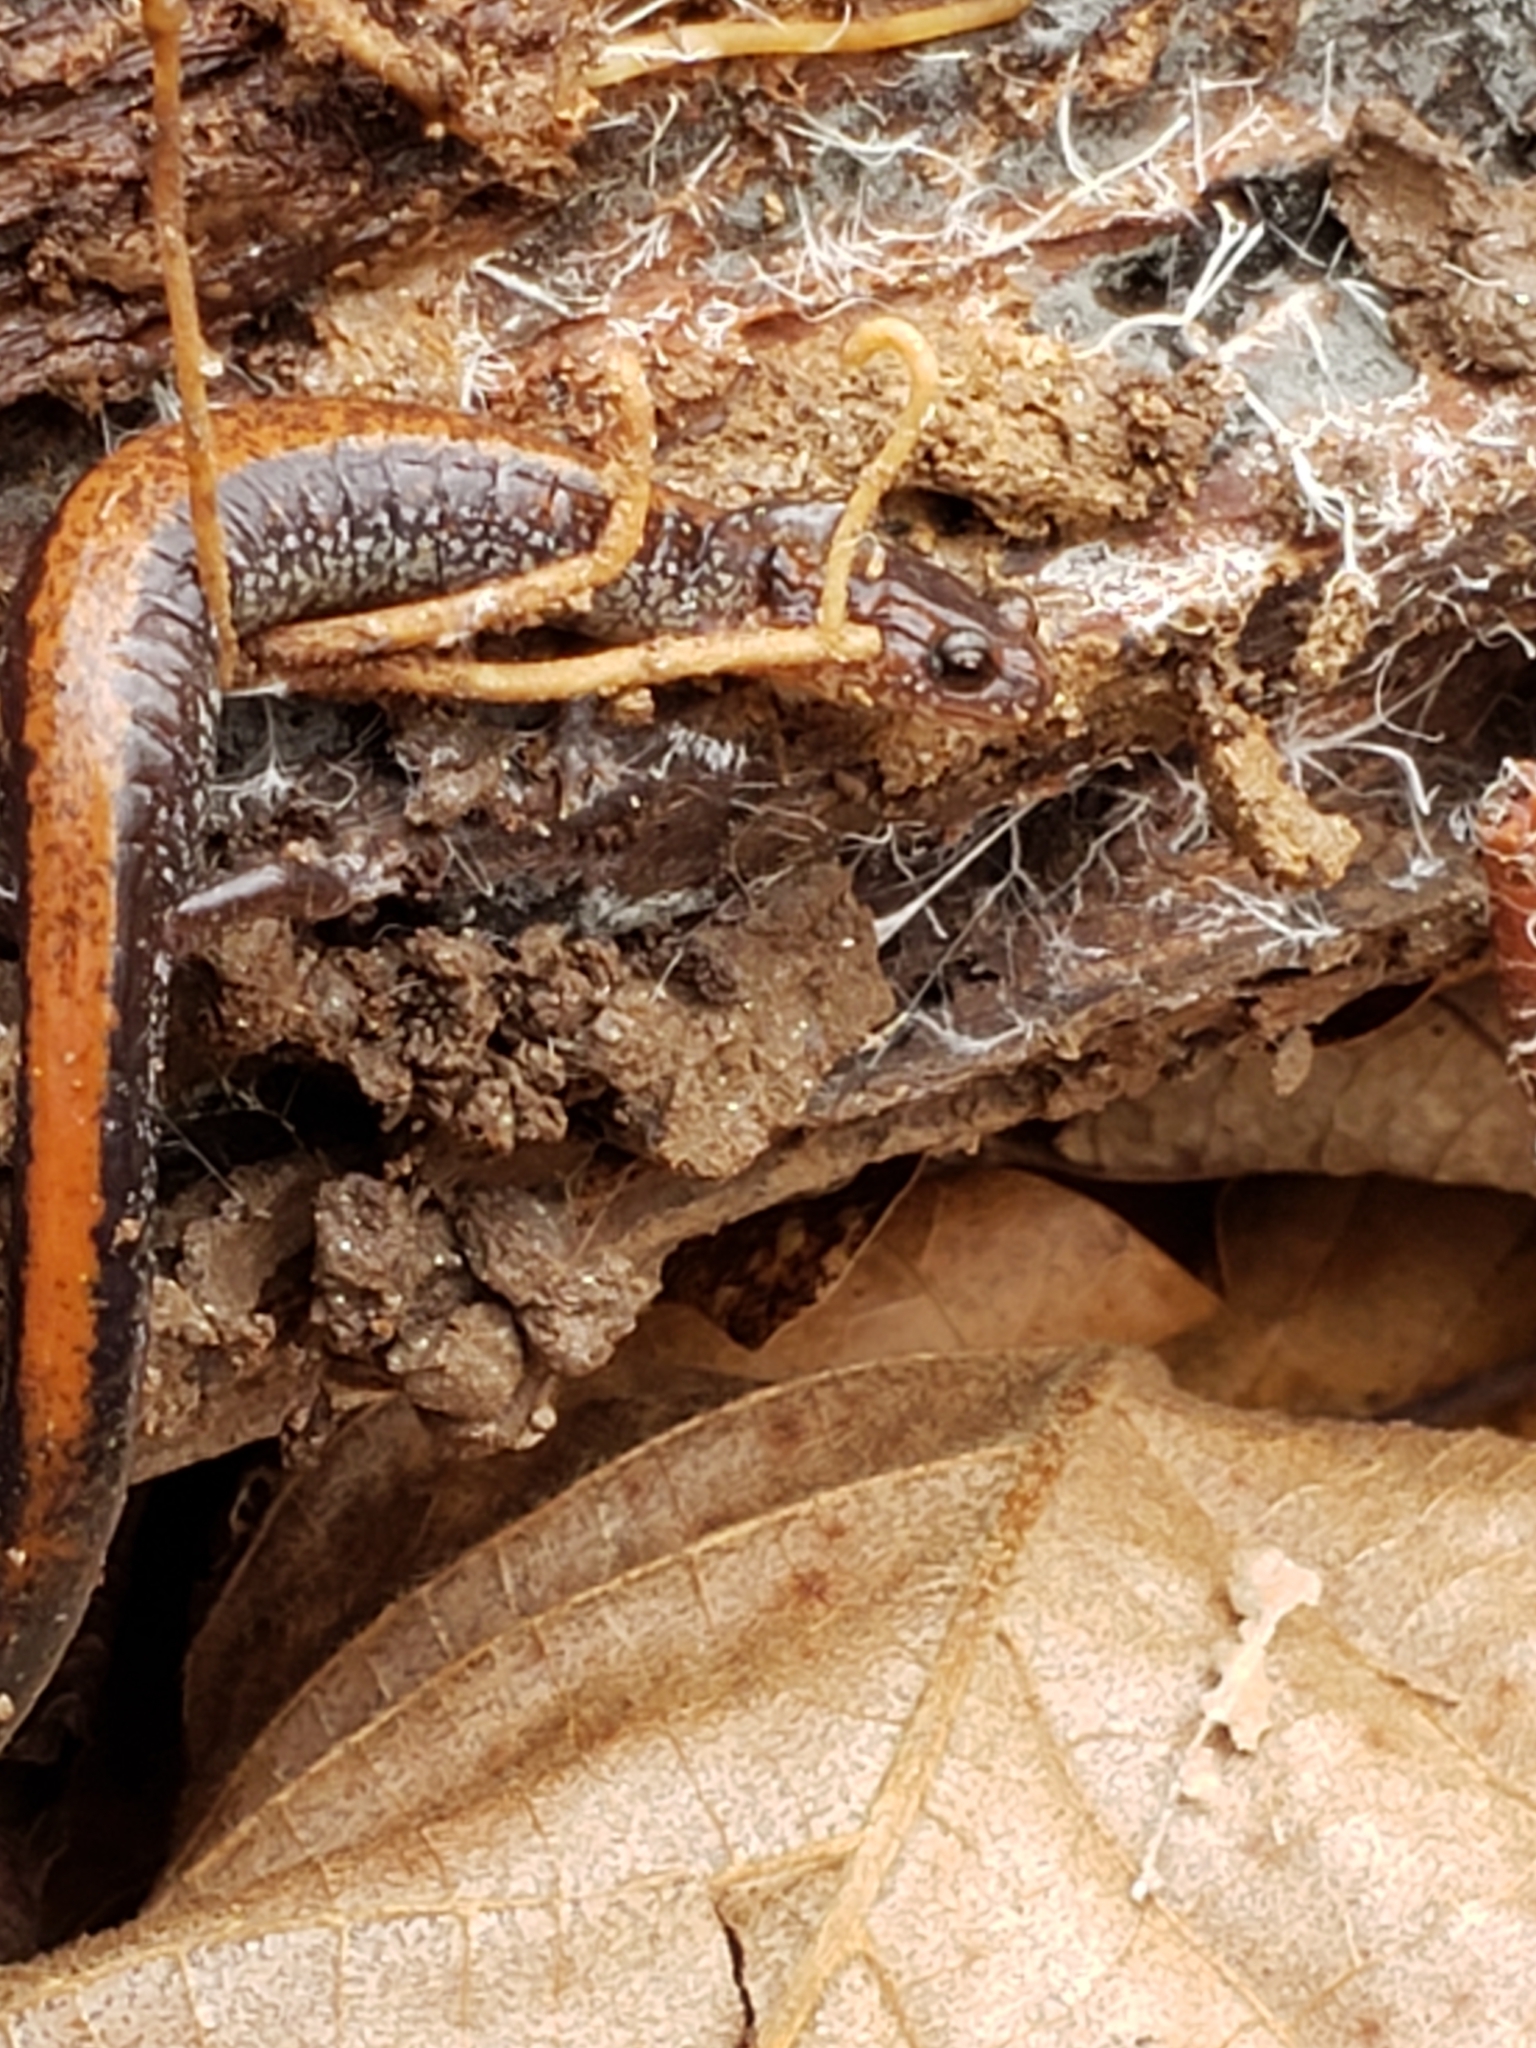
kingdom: Animalia
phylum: Chordata
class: Amphibia
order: Caudata
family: Plethodontidae
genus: Plethodon
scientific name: Plethodon cinereus
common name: Redback salamander
